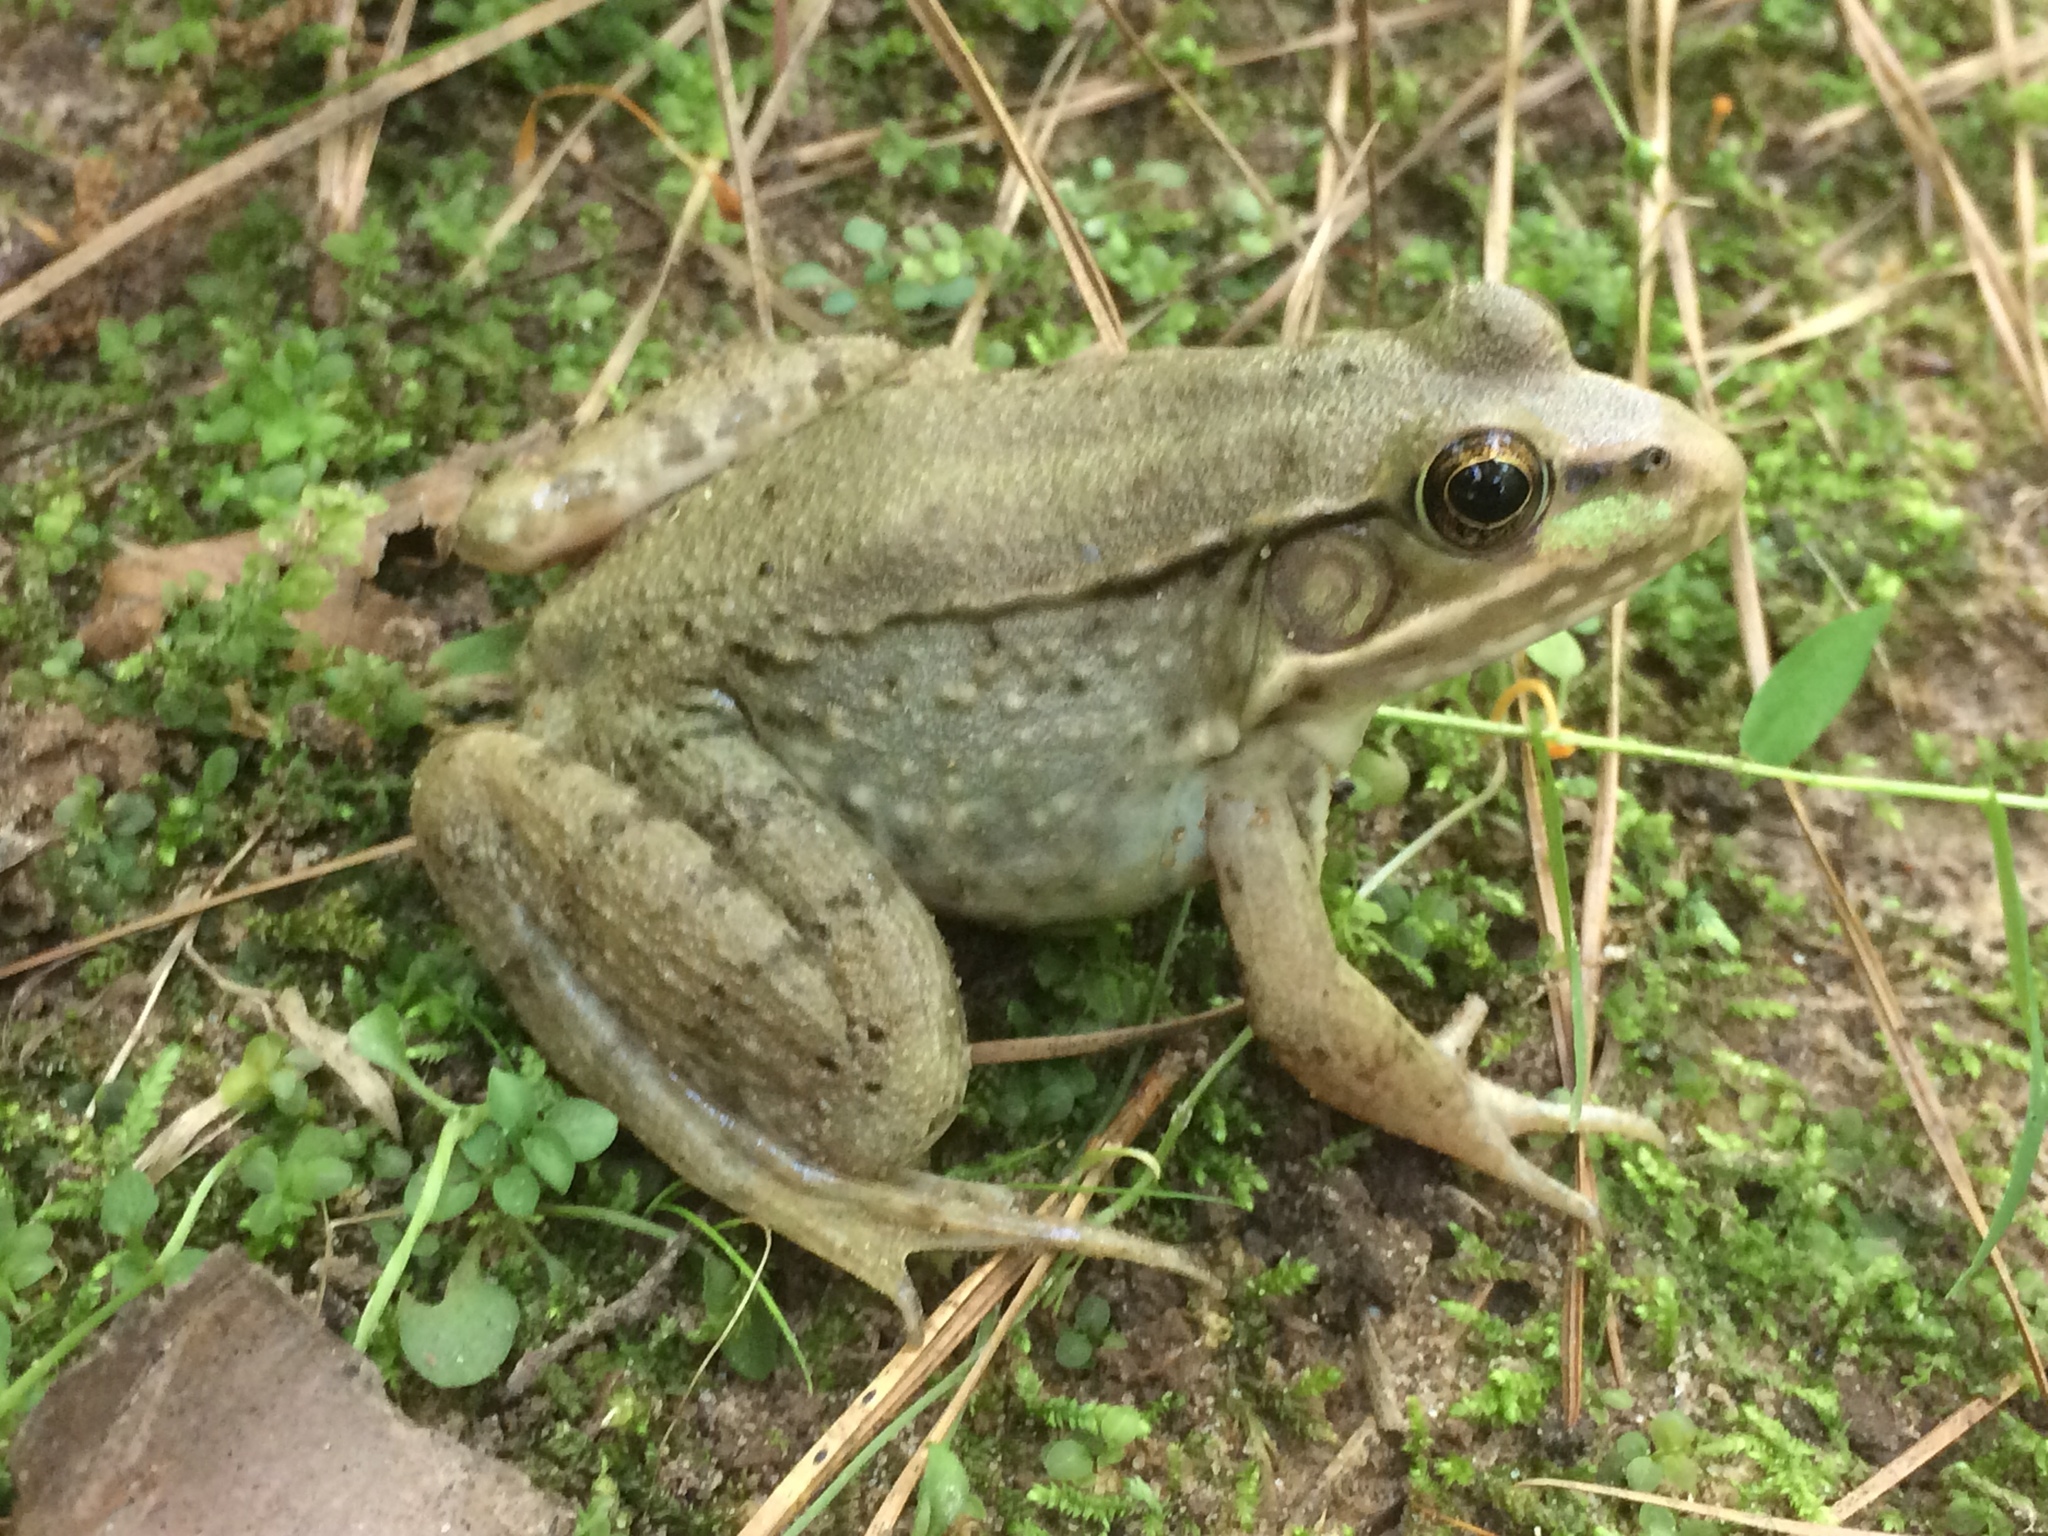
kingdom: Animalia
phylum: Chordata
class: Amphibia
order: Anura
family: Ranidae
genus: Lithobates
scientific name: Lithobates clamitans
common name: Green frog
